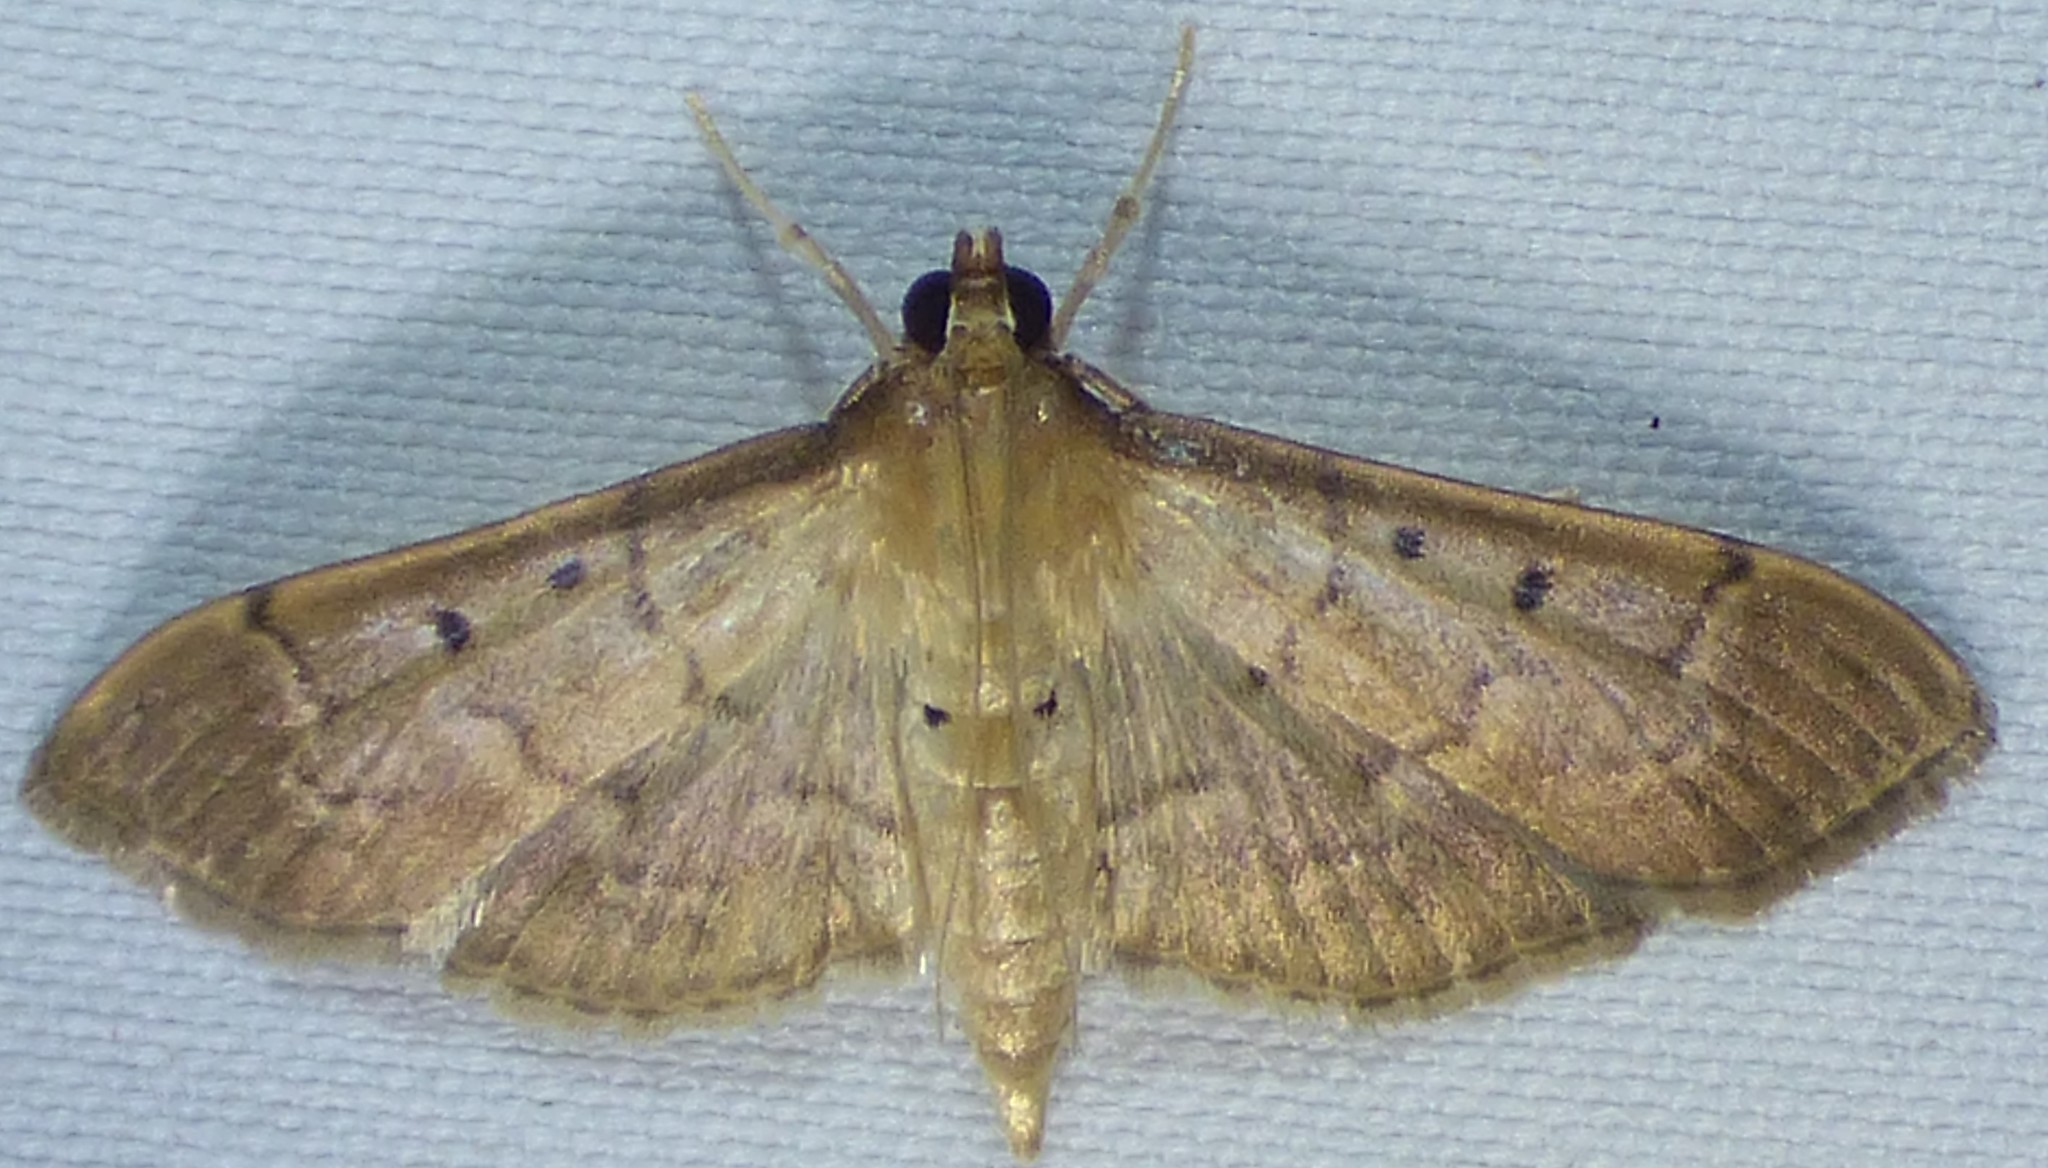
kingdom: Animalia
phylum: Arthropoda
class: Insecta
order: Lepidoptera
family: Crambidae
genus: Herpetogramma
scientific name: Herpetogramma bipunctalis
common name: Southern beet webworm
